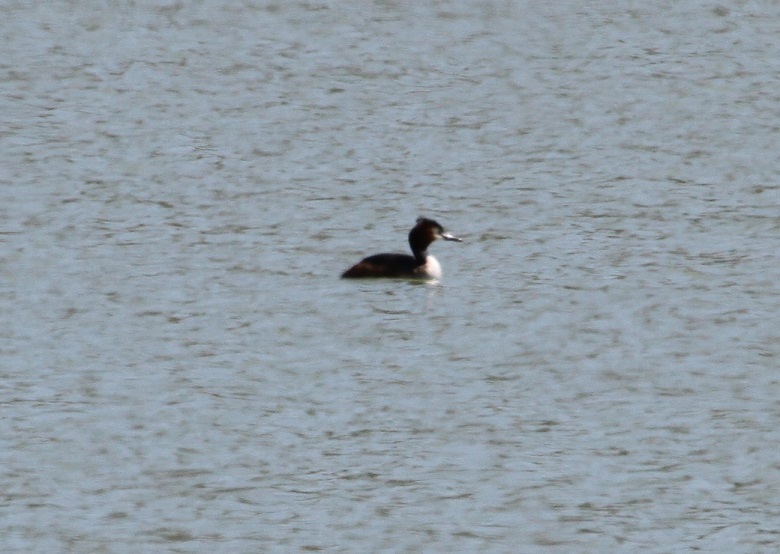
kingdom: Animalia
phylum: Chordata
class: Aves
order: Podicipediformes
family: Podicipedidae
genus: Podiceps
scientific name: Podiceps cristatus
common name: Great crested grebe
